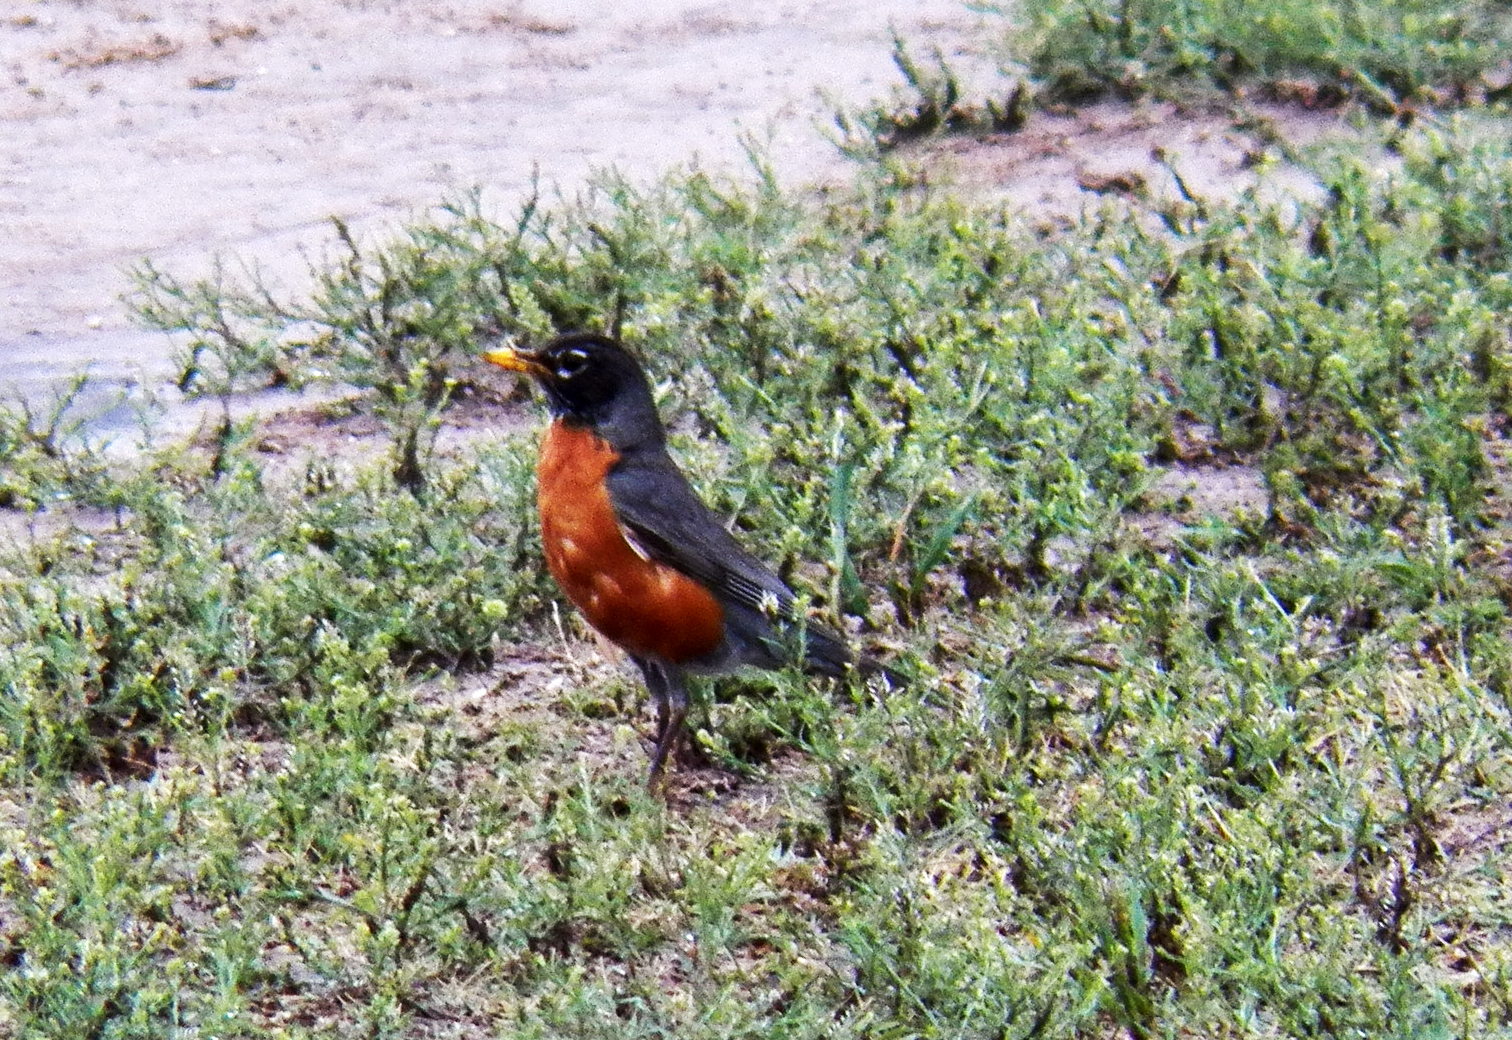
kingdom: Animalia
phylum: Chordata
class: Aves
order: Passeriformes
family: Turdidae
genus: Turdus
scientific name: Turdus migratorius
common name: American robin
